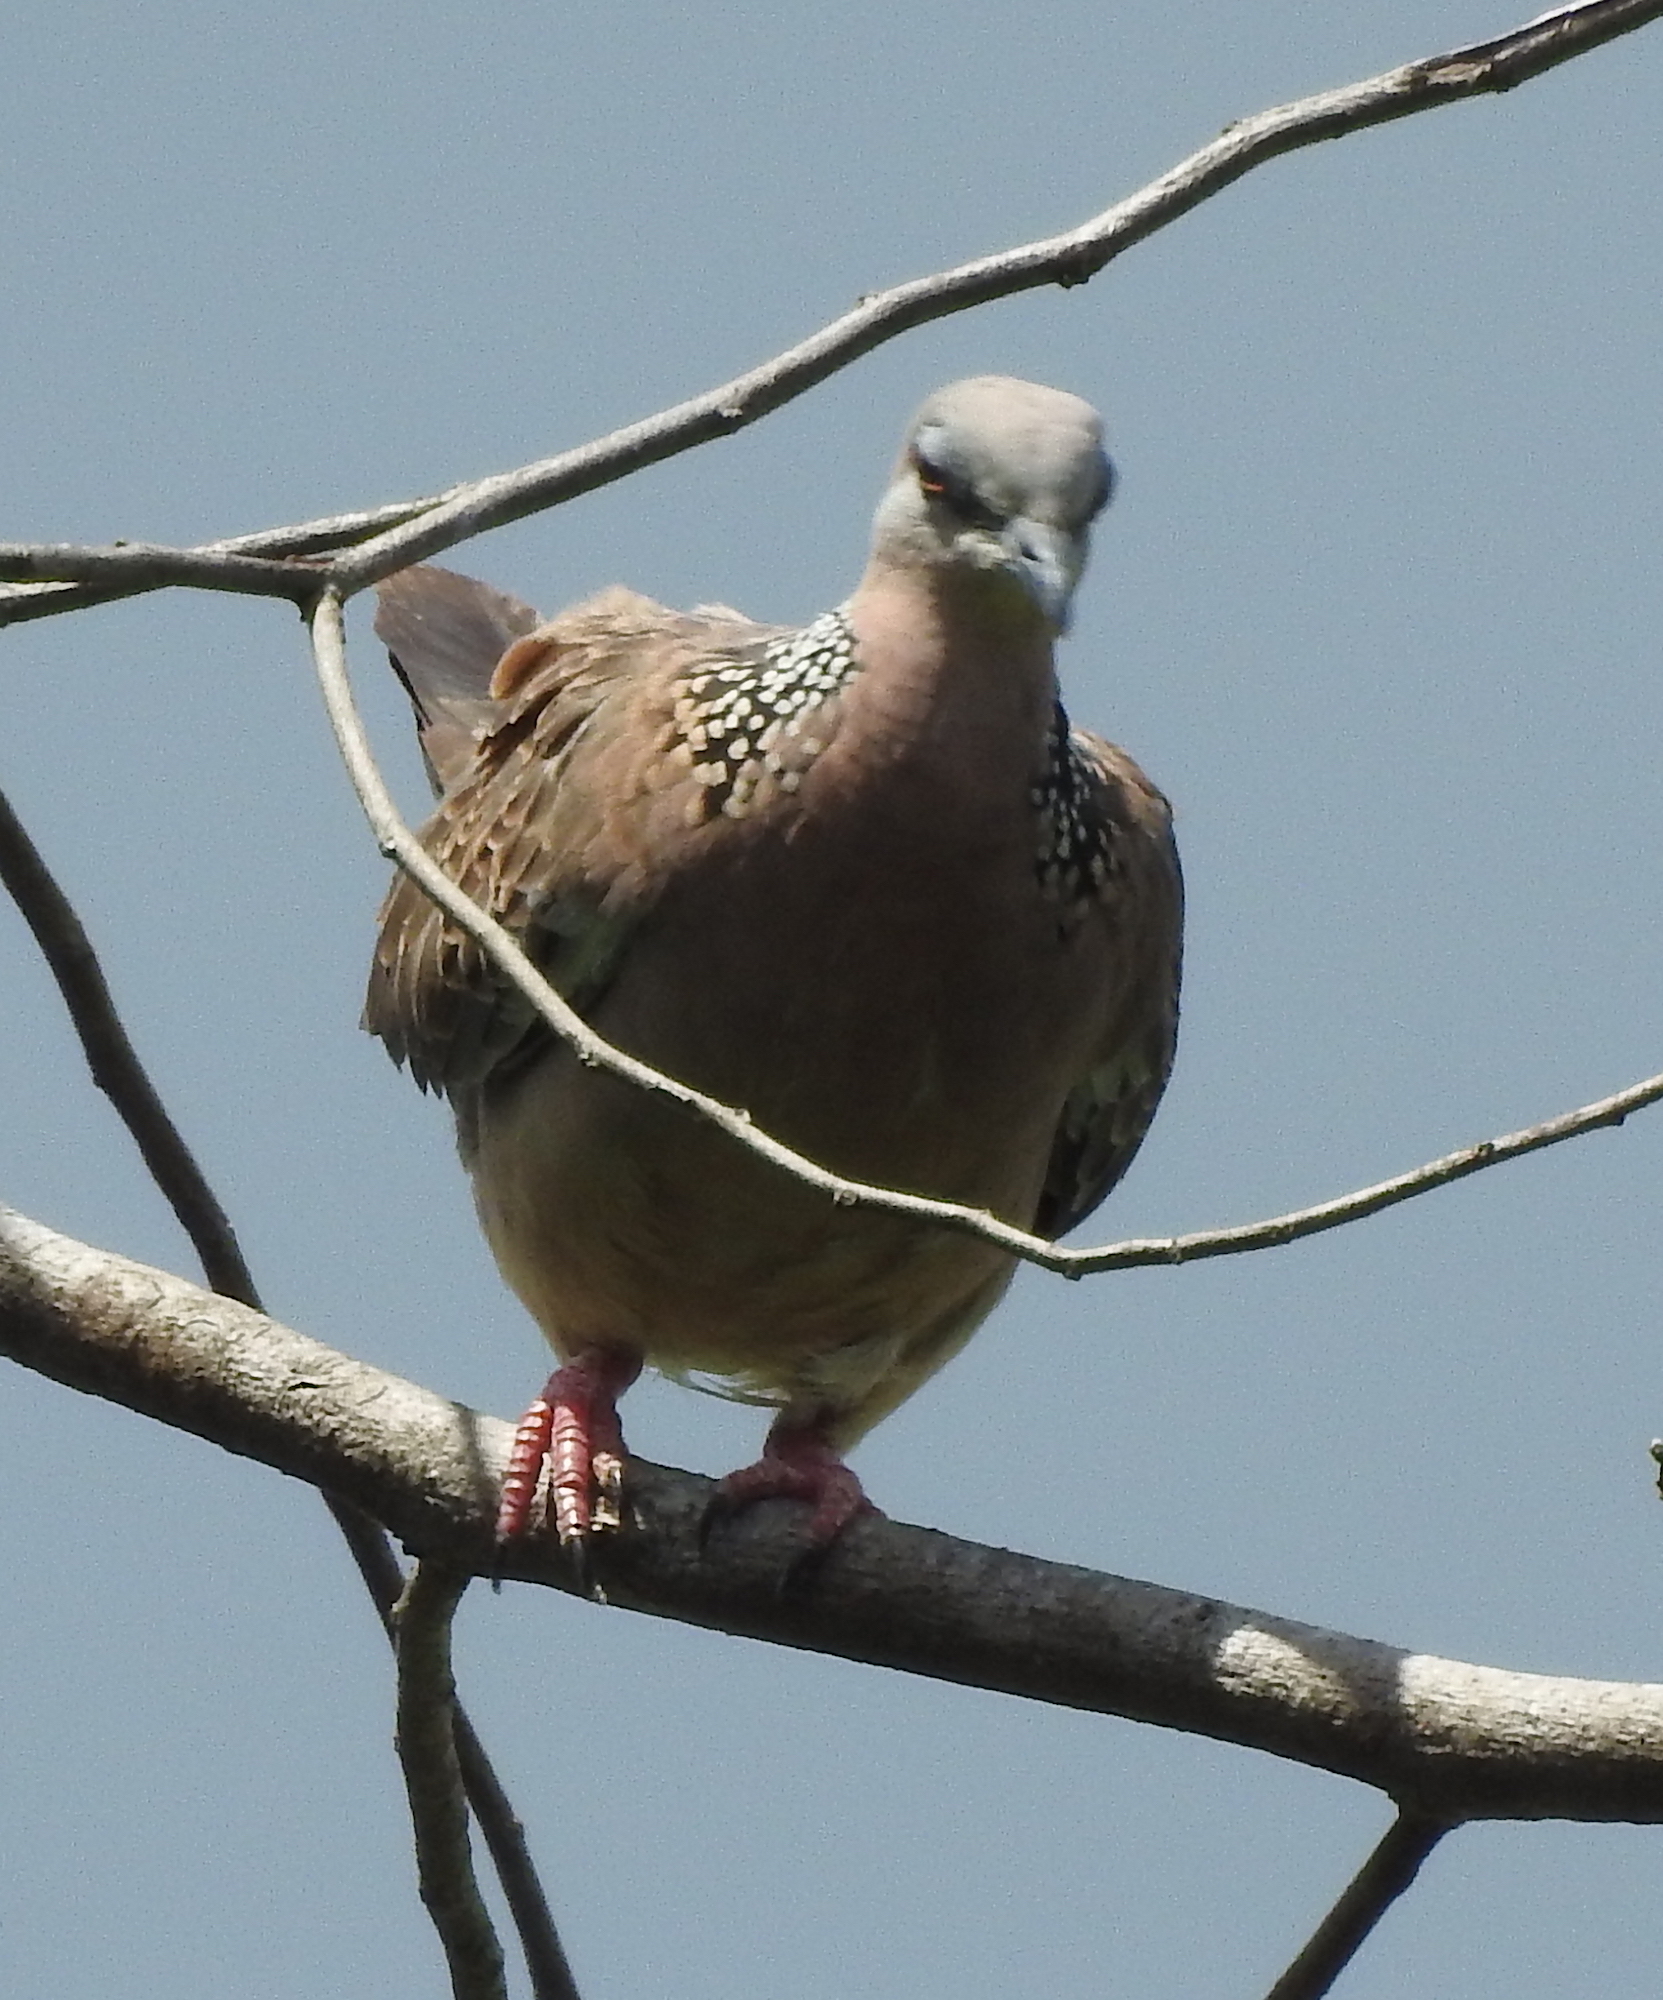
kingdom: Animalia
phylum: Chordata
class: Aves
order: Columbiformes
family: Columbidae
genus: Spilopelia
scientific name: Spilopelia chinensis
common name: Spotted dove
